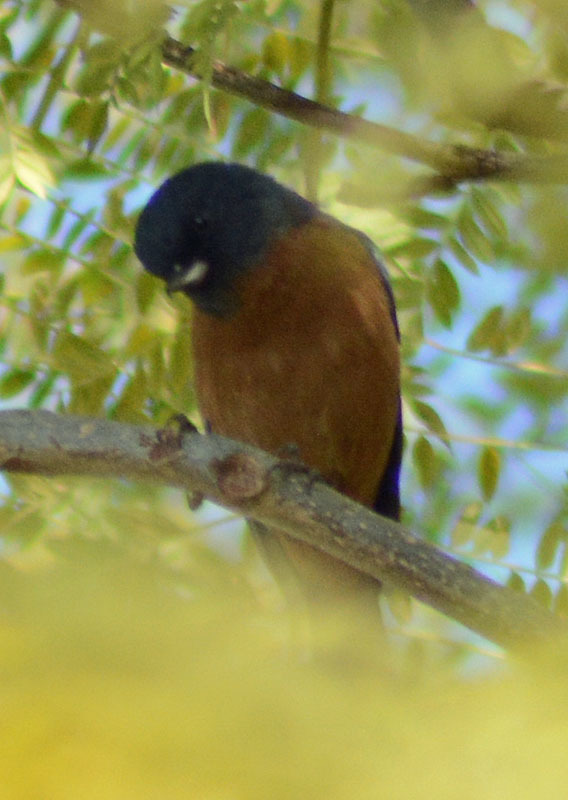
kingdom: Animalia
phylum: Chordata
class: Aves
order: Passeriformes
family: Thraupidae
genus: Diglossa
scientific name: Diglossa baritula
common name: Cinnamon-bellied flowerpiercer
